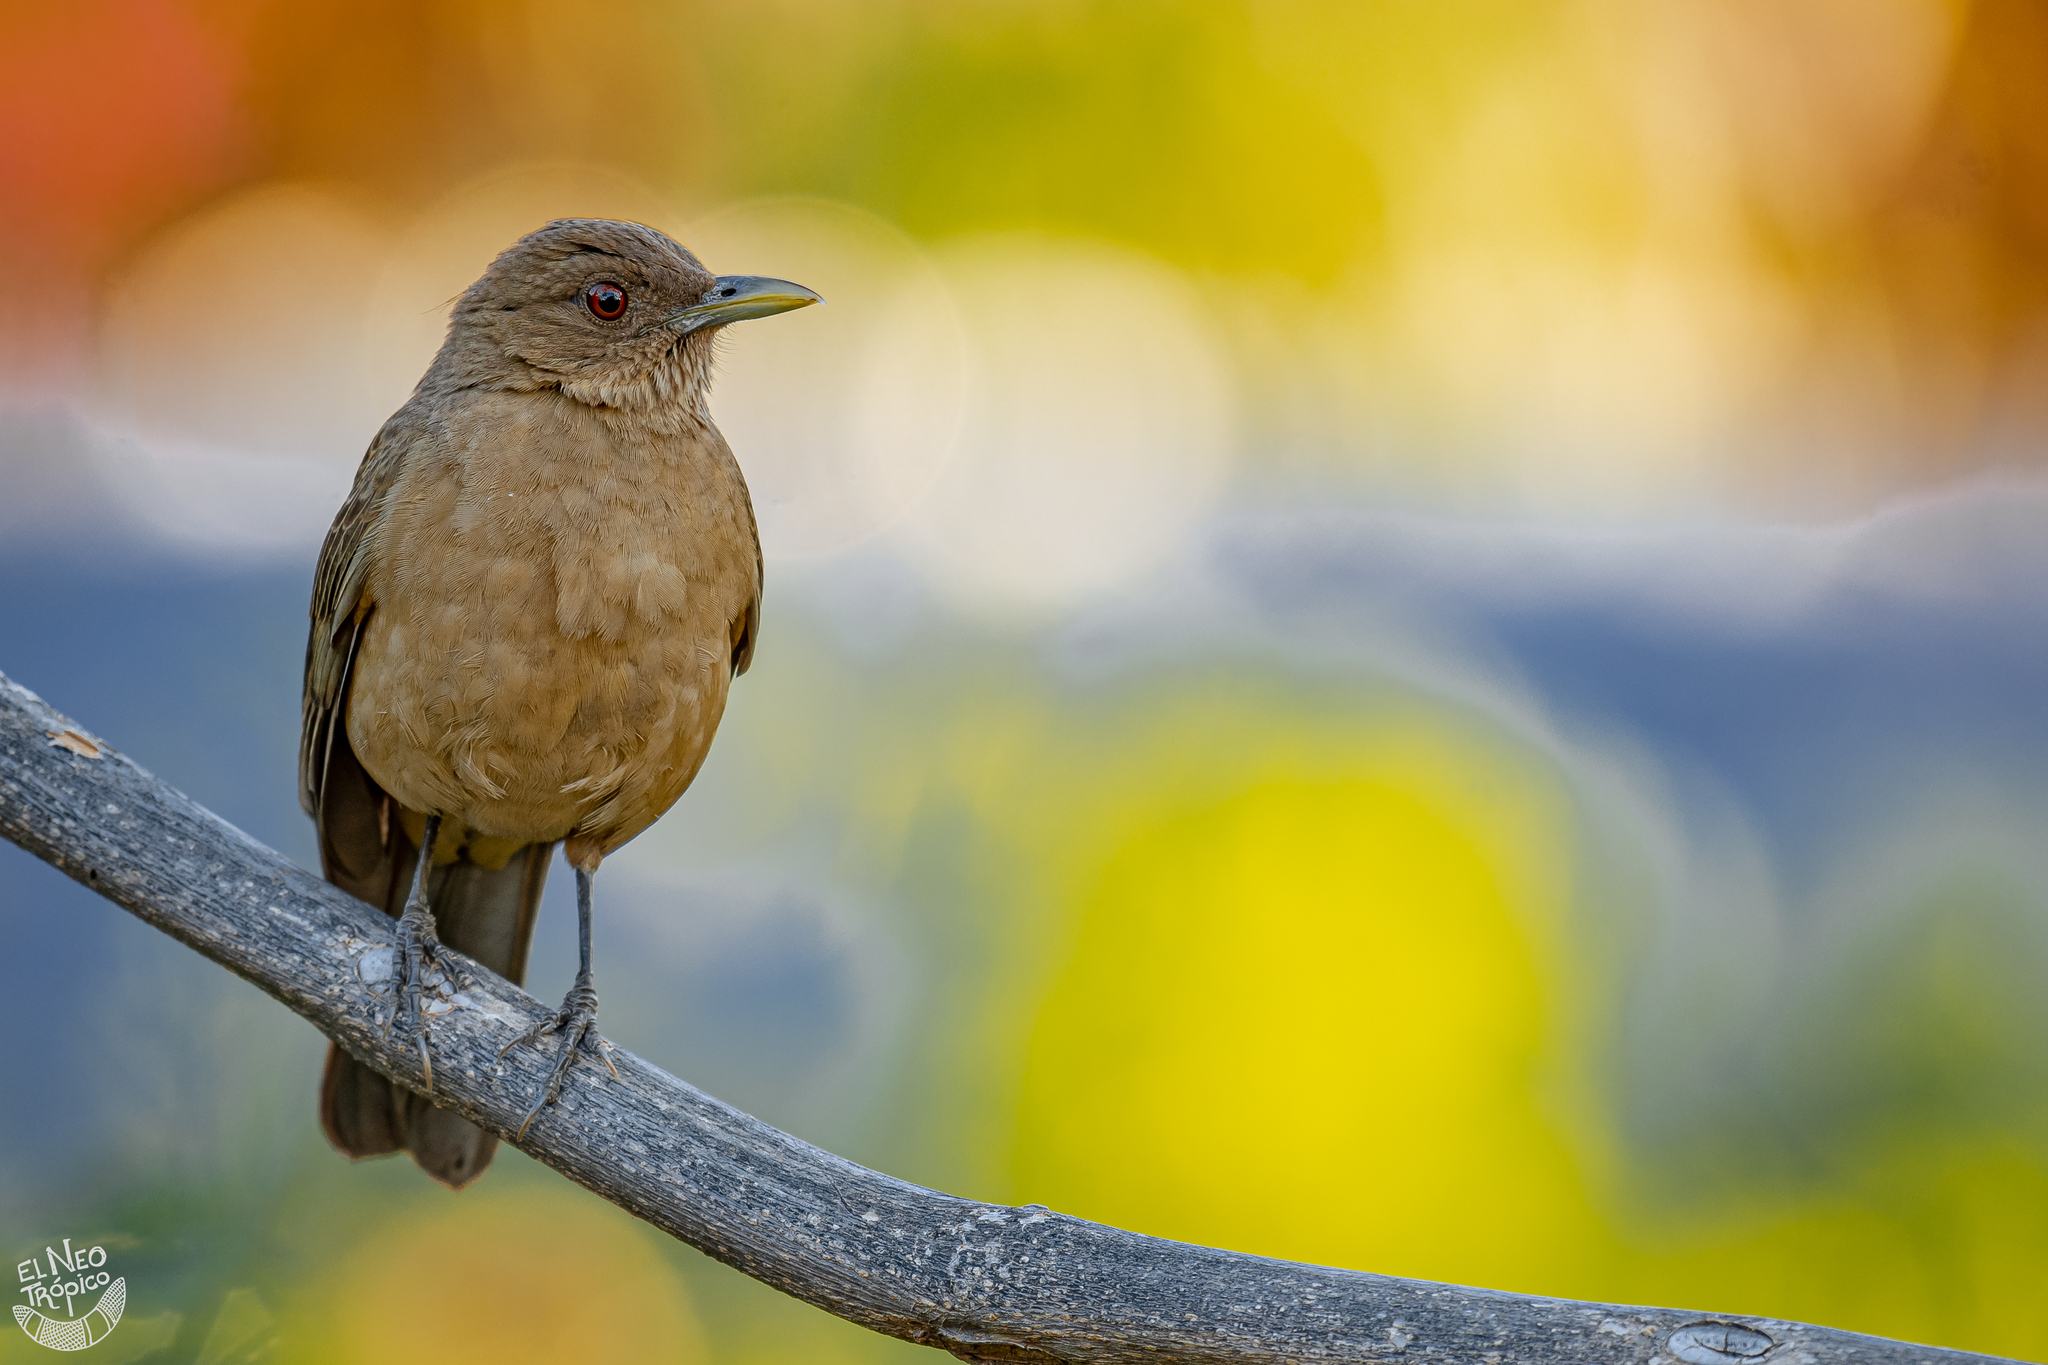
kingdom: Animalia
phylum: Chordata
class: Aves
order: Passeriformes
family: Turdidae
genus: Turdus
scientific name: Turdus grayi
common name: Clay-colored thrush
